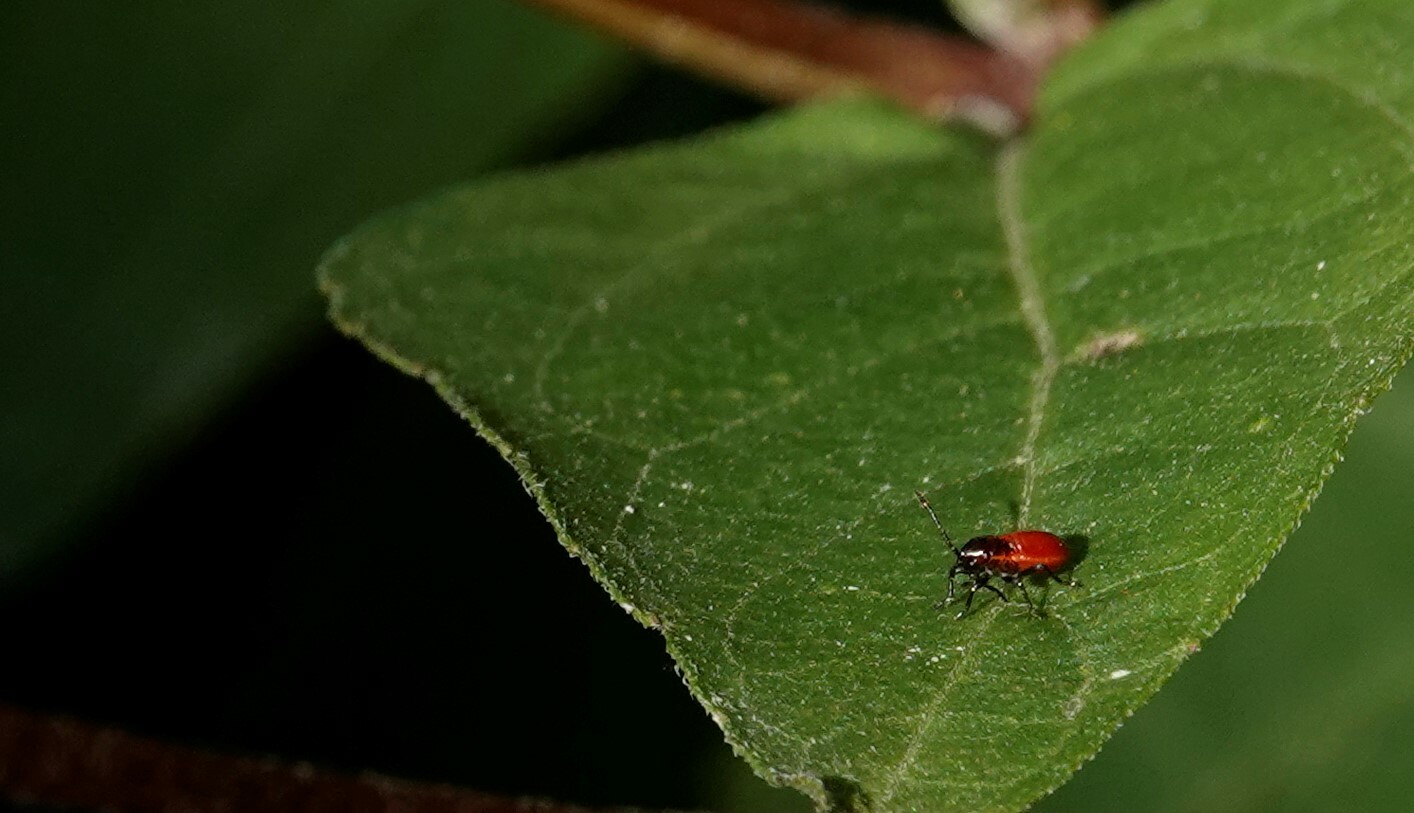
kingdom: Animalia
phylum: Arthropoda
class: Insecta
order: Hemiptera
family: Lygaeidae
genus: Oncopeltus
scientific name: Oncopeltus fasciatus
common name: Large milkweed bug
